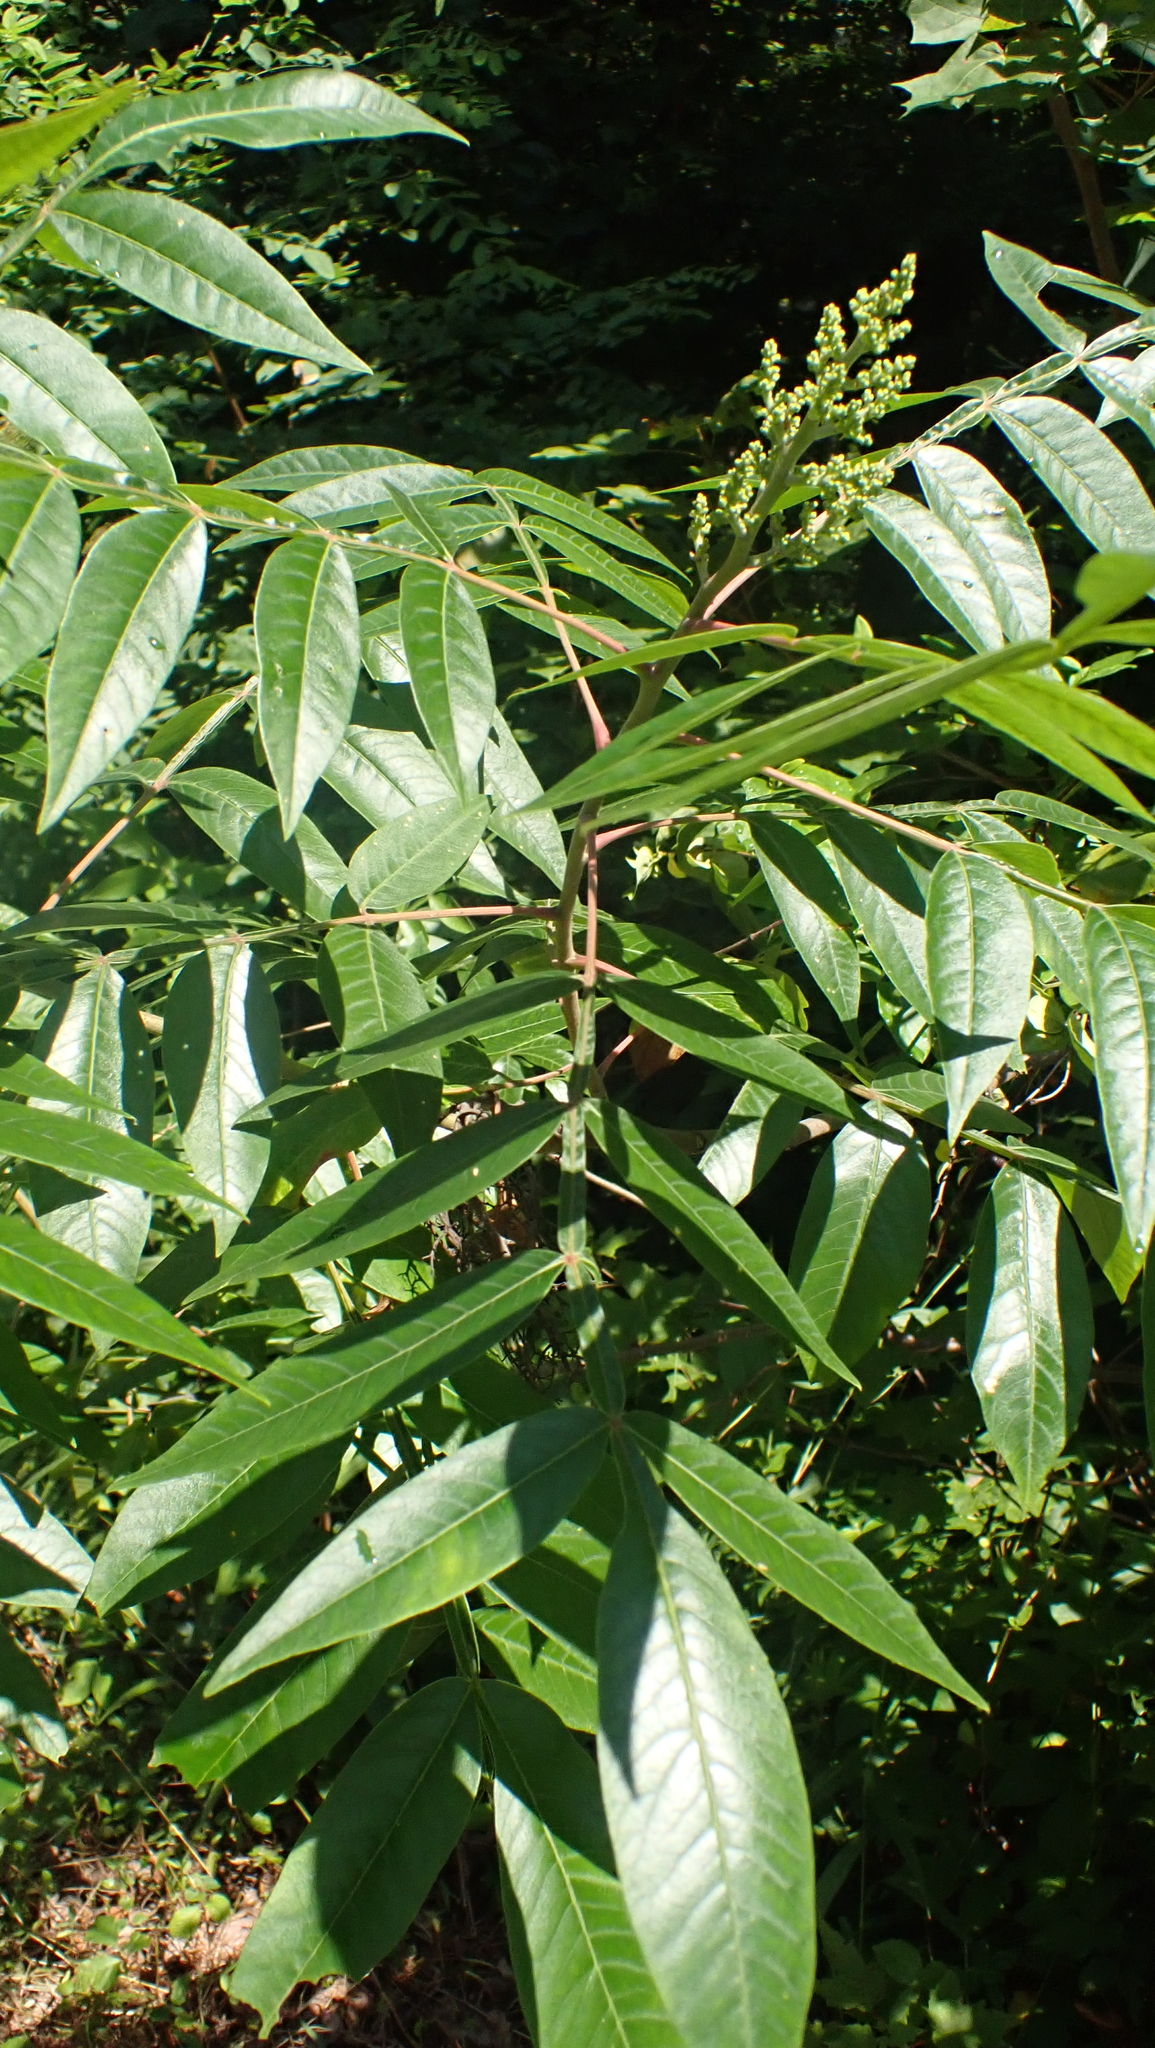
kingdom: Plantae
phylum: Tracheophyta
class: Magnoliopsida
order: Sapindales
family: Anacardiaceae
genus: Rhus
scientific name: Rhus copallina
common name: Shining sumac
